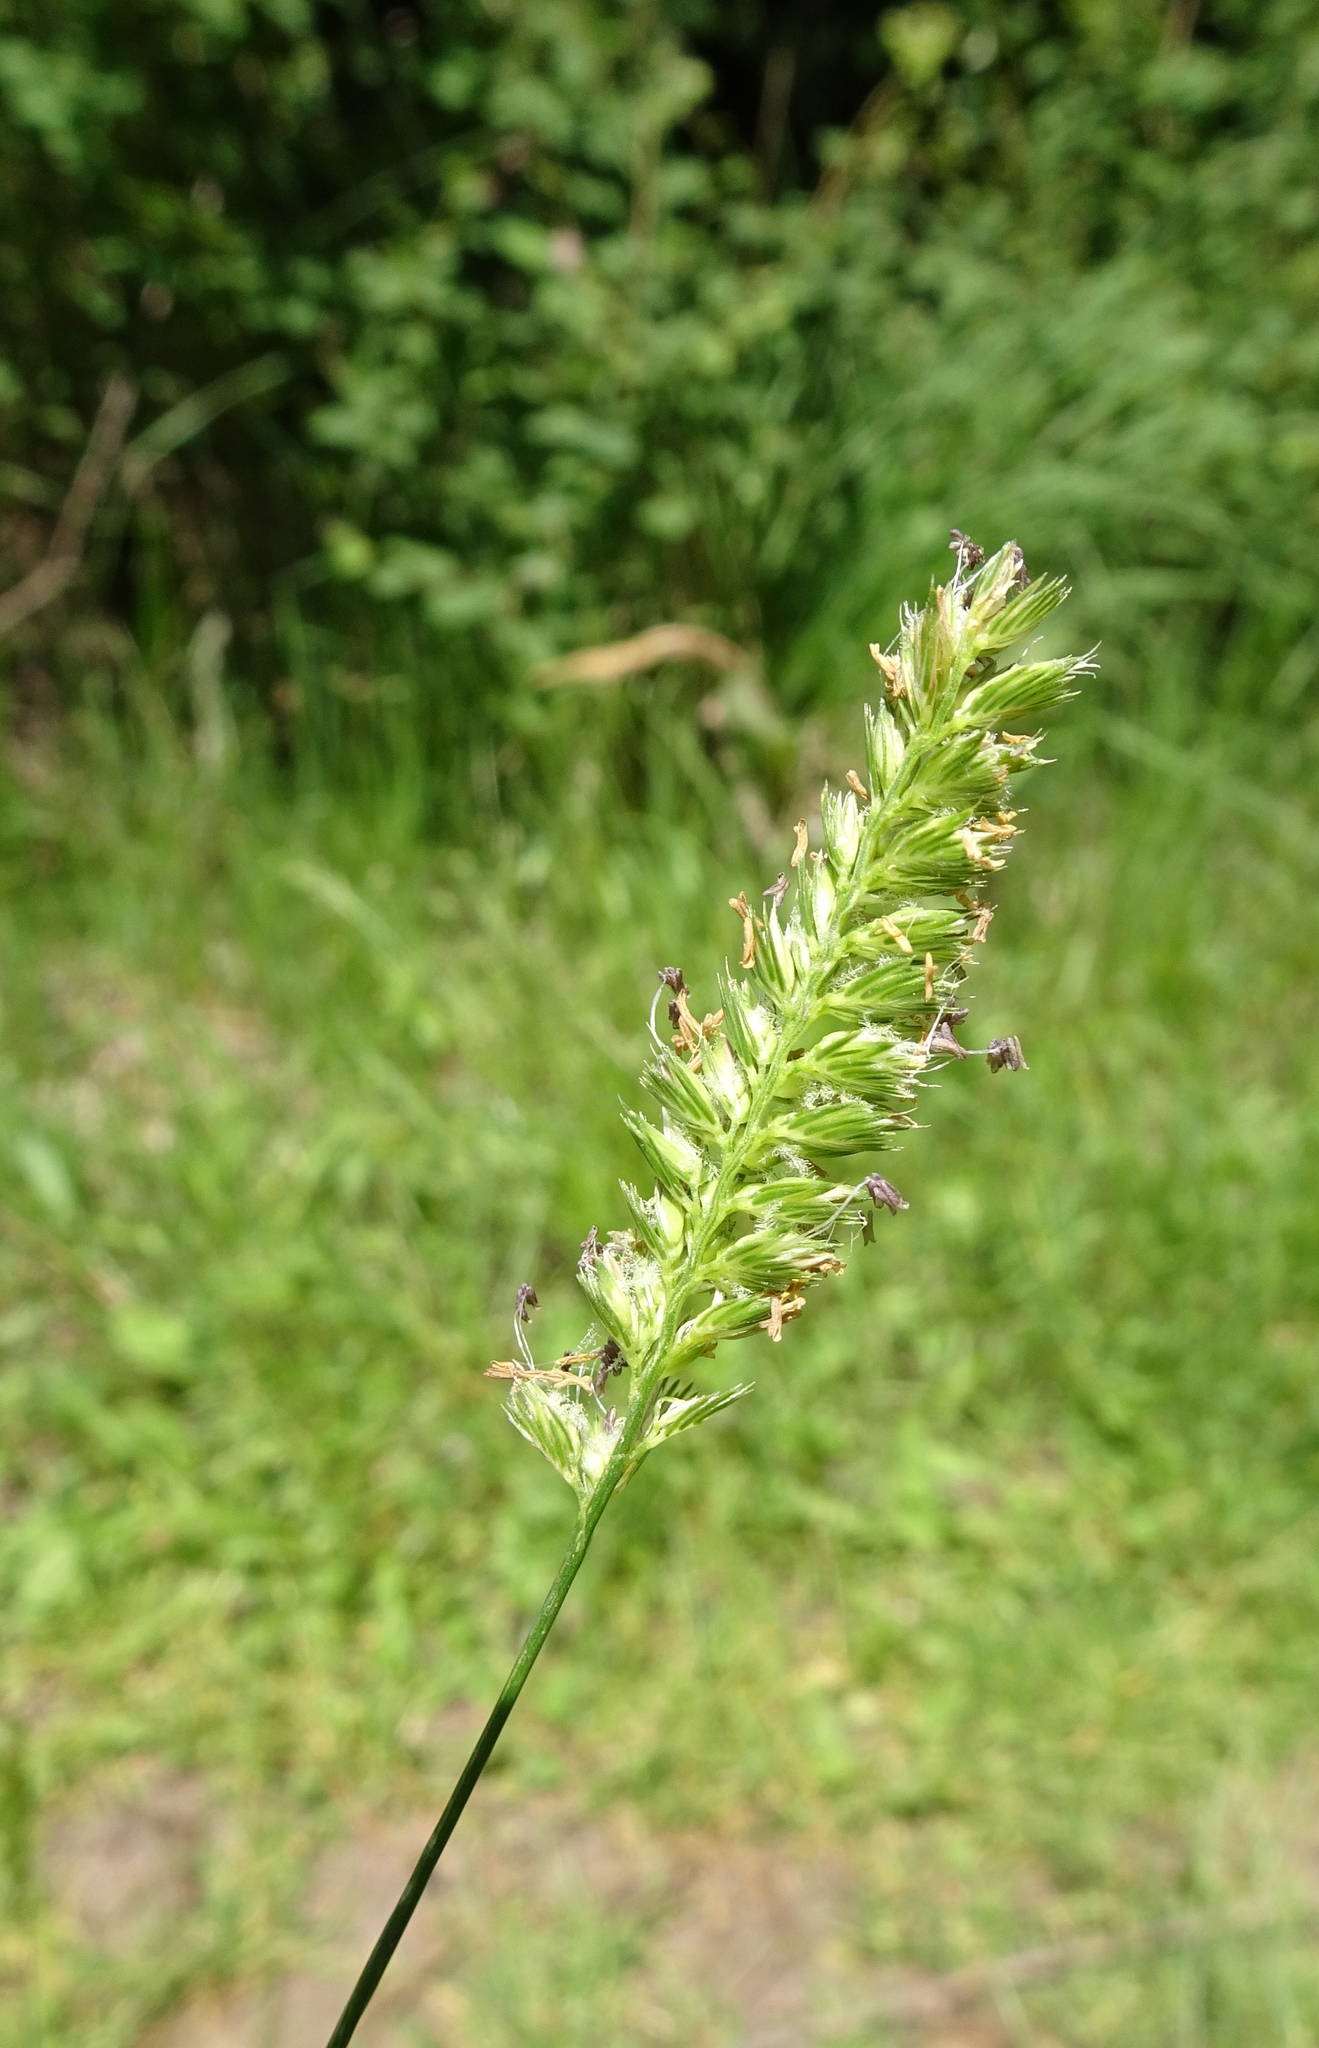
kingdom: Plantae
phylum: Tracheophyta
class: Liliopsida
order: Poales
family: Poaceae
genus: Cynosurus
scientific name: Cynosurus cristatus
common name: Crested dog's-tail
